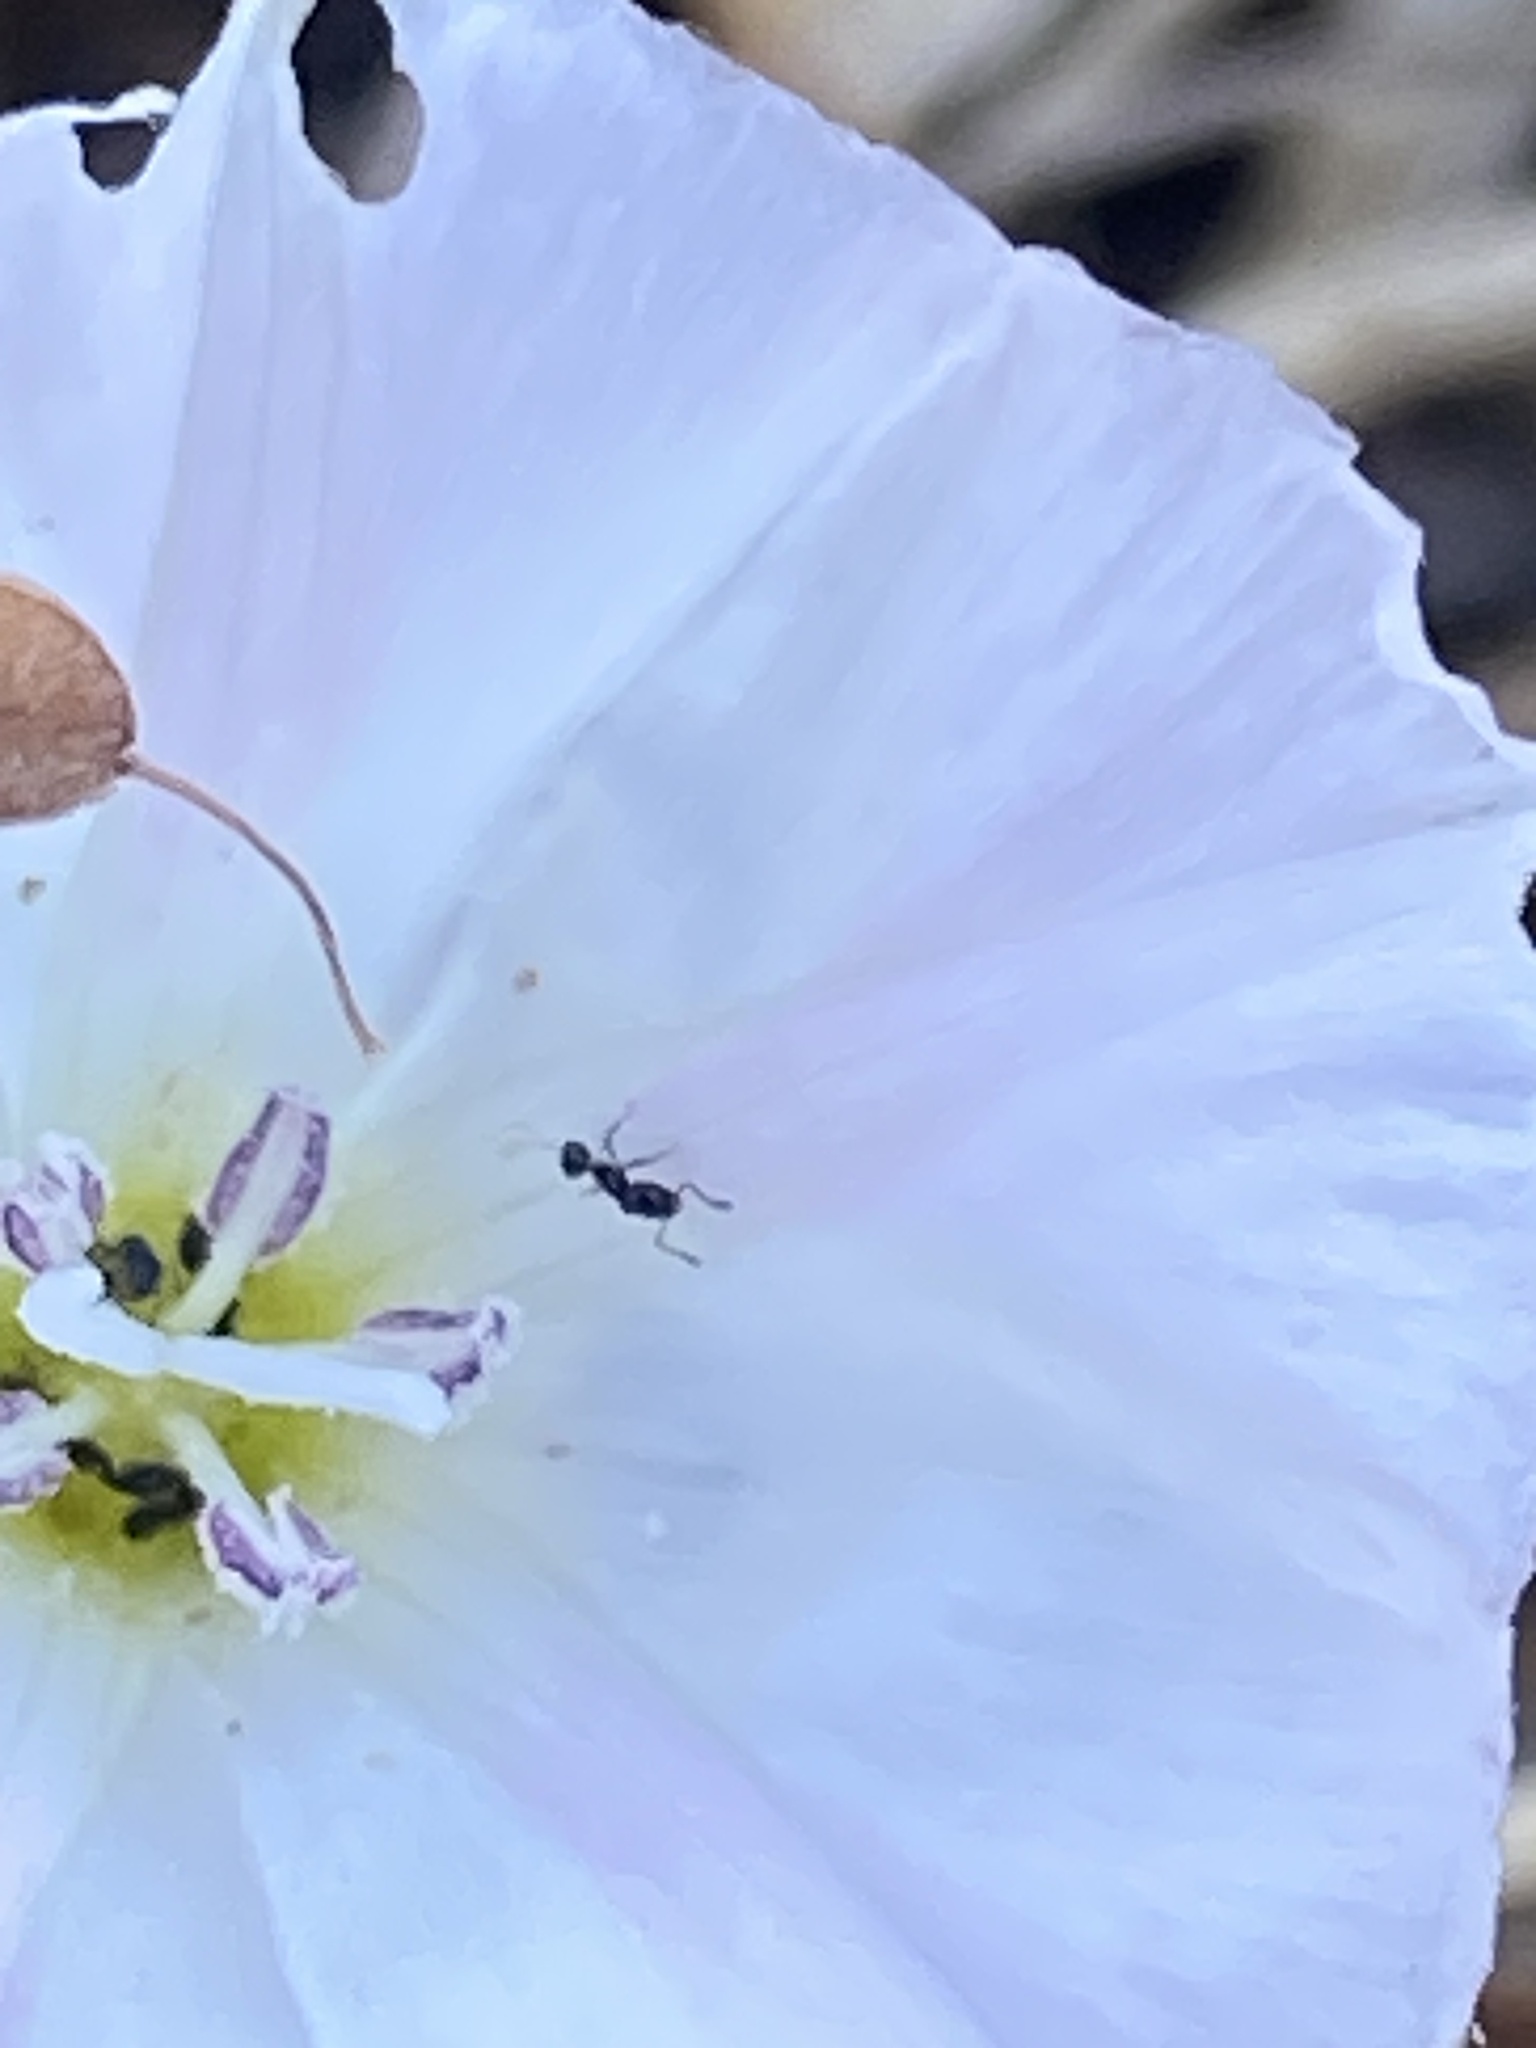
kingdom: Animalia
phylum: Arthropoda
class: Insecta
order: Hymenoptera
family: Formicidae
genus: Monomorium
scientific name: Monomorium minimum
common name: Little black ant
